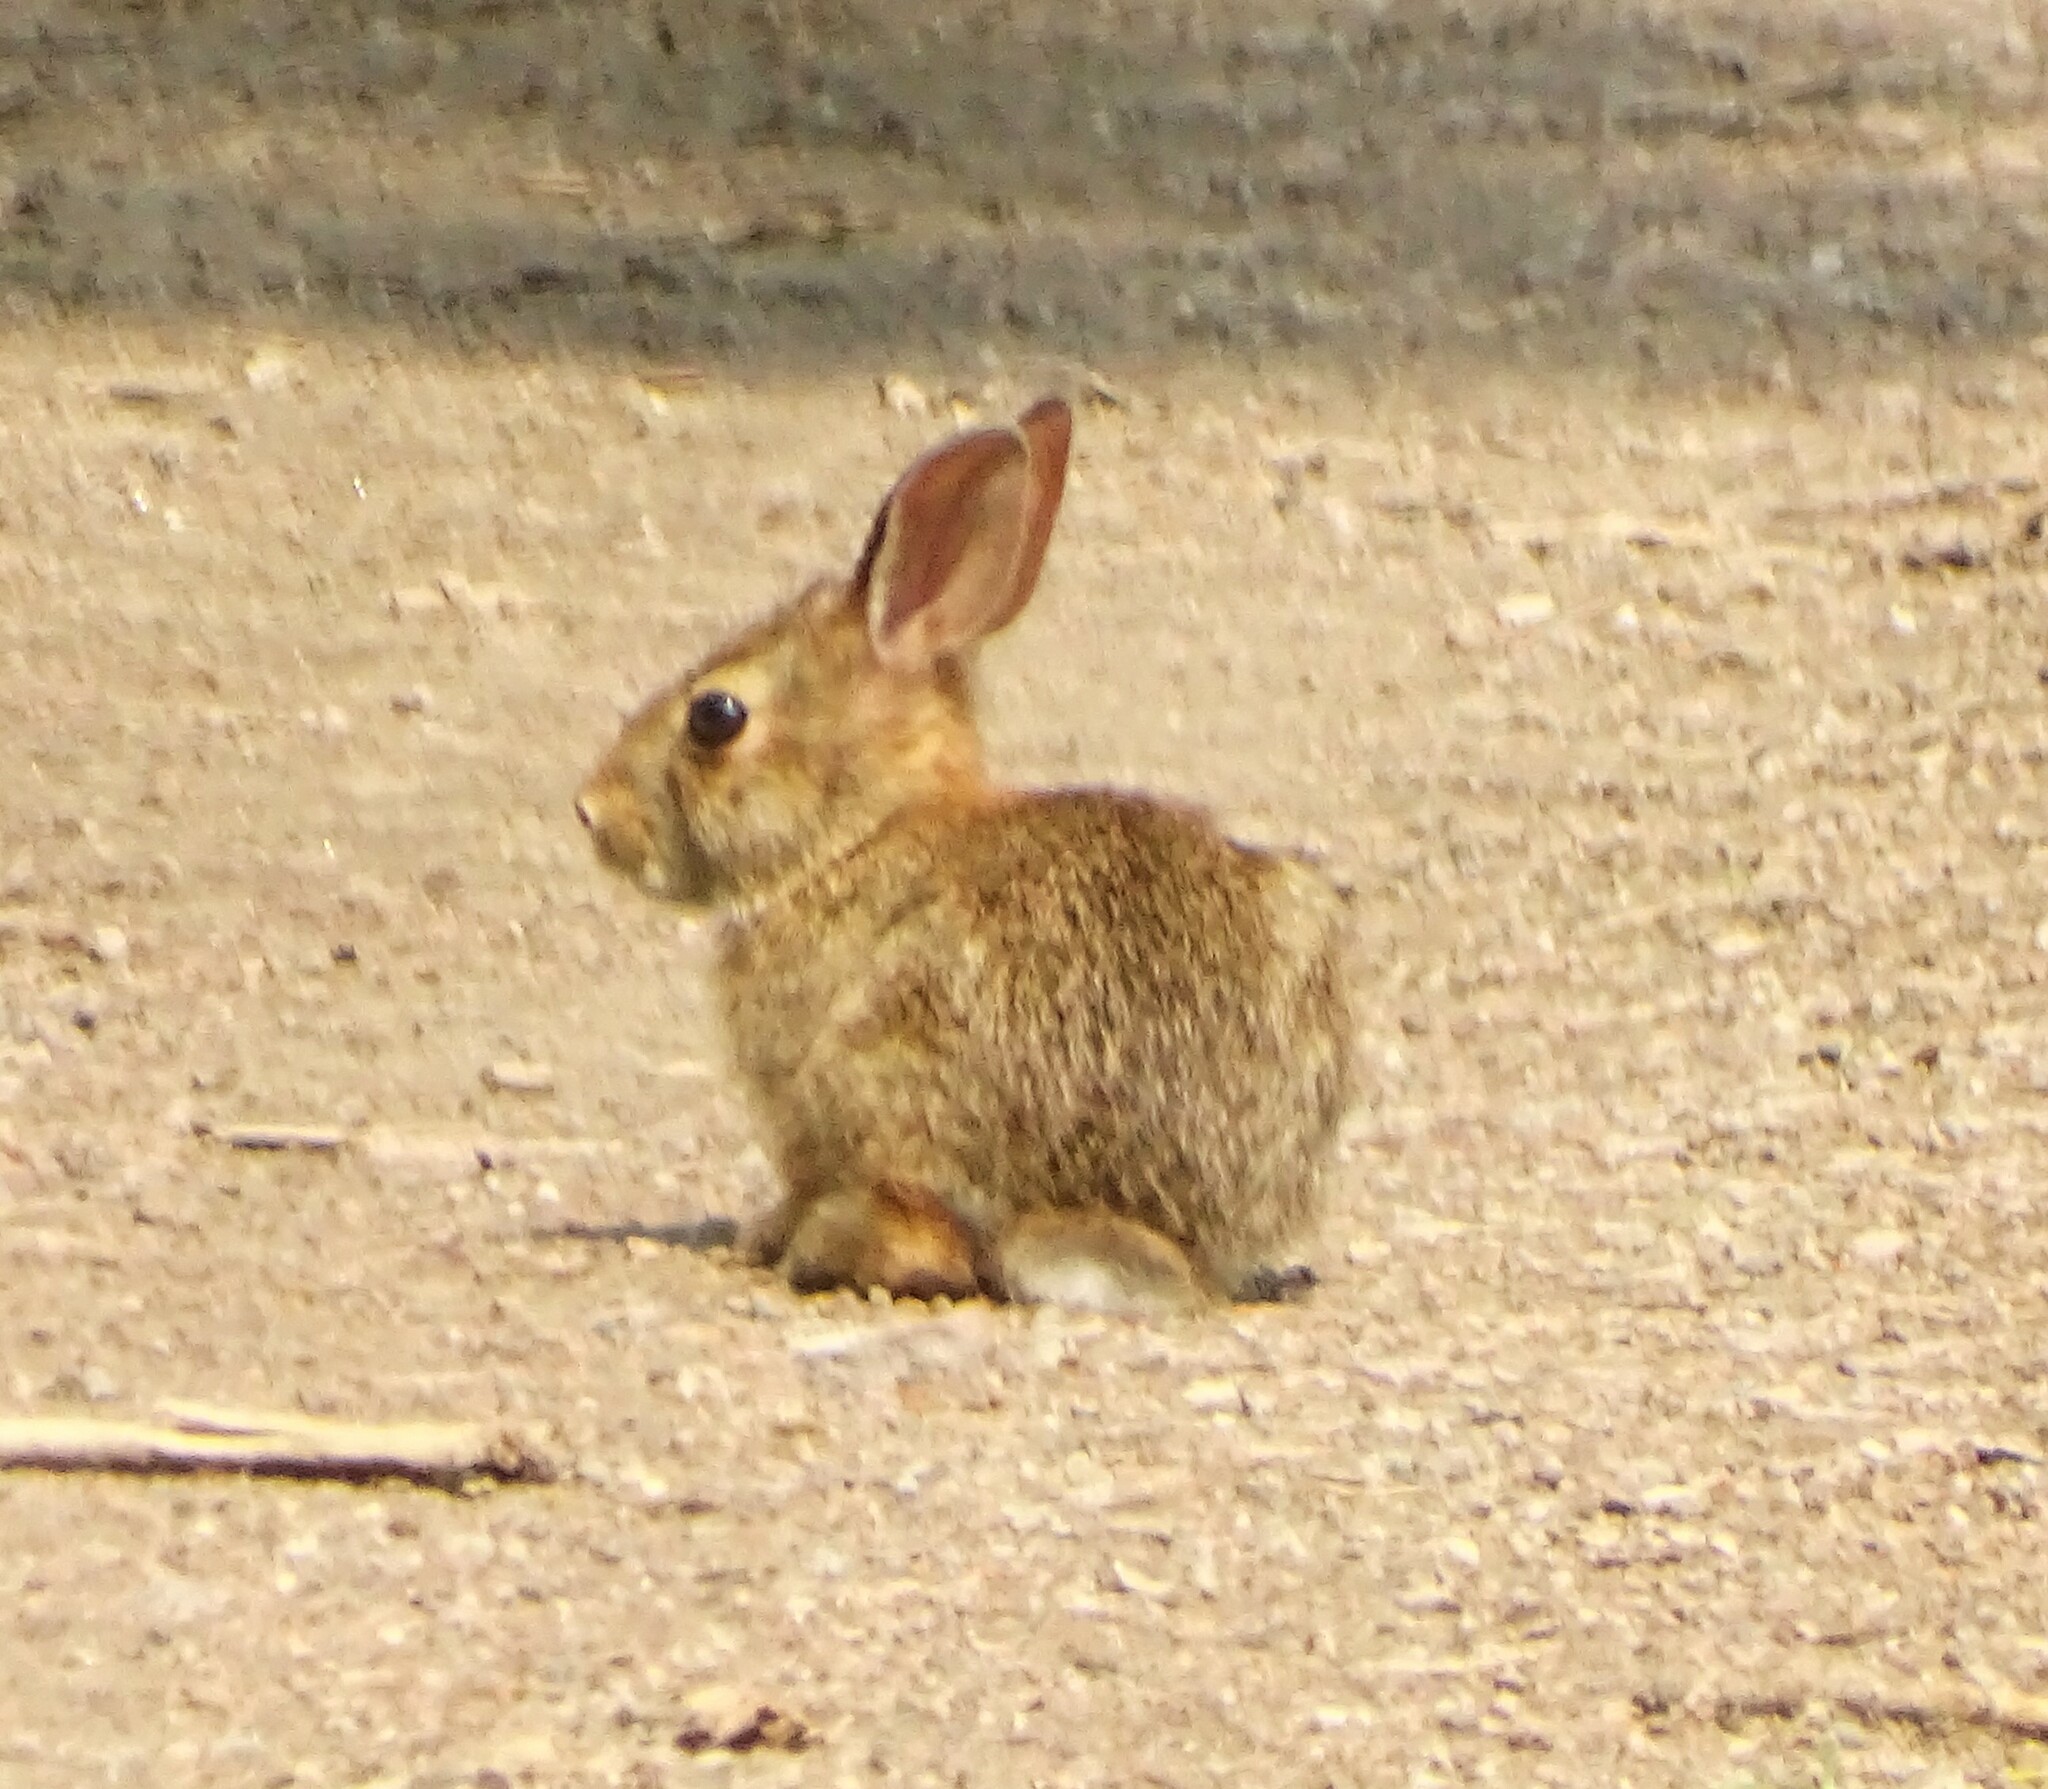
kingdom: Animalia
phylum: Chordata
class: Mammalia
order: Lagomorpha
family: Leporidae
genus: Sylvilagus
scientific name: Sylvilagus floridanus
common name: Eastern cottontail
